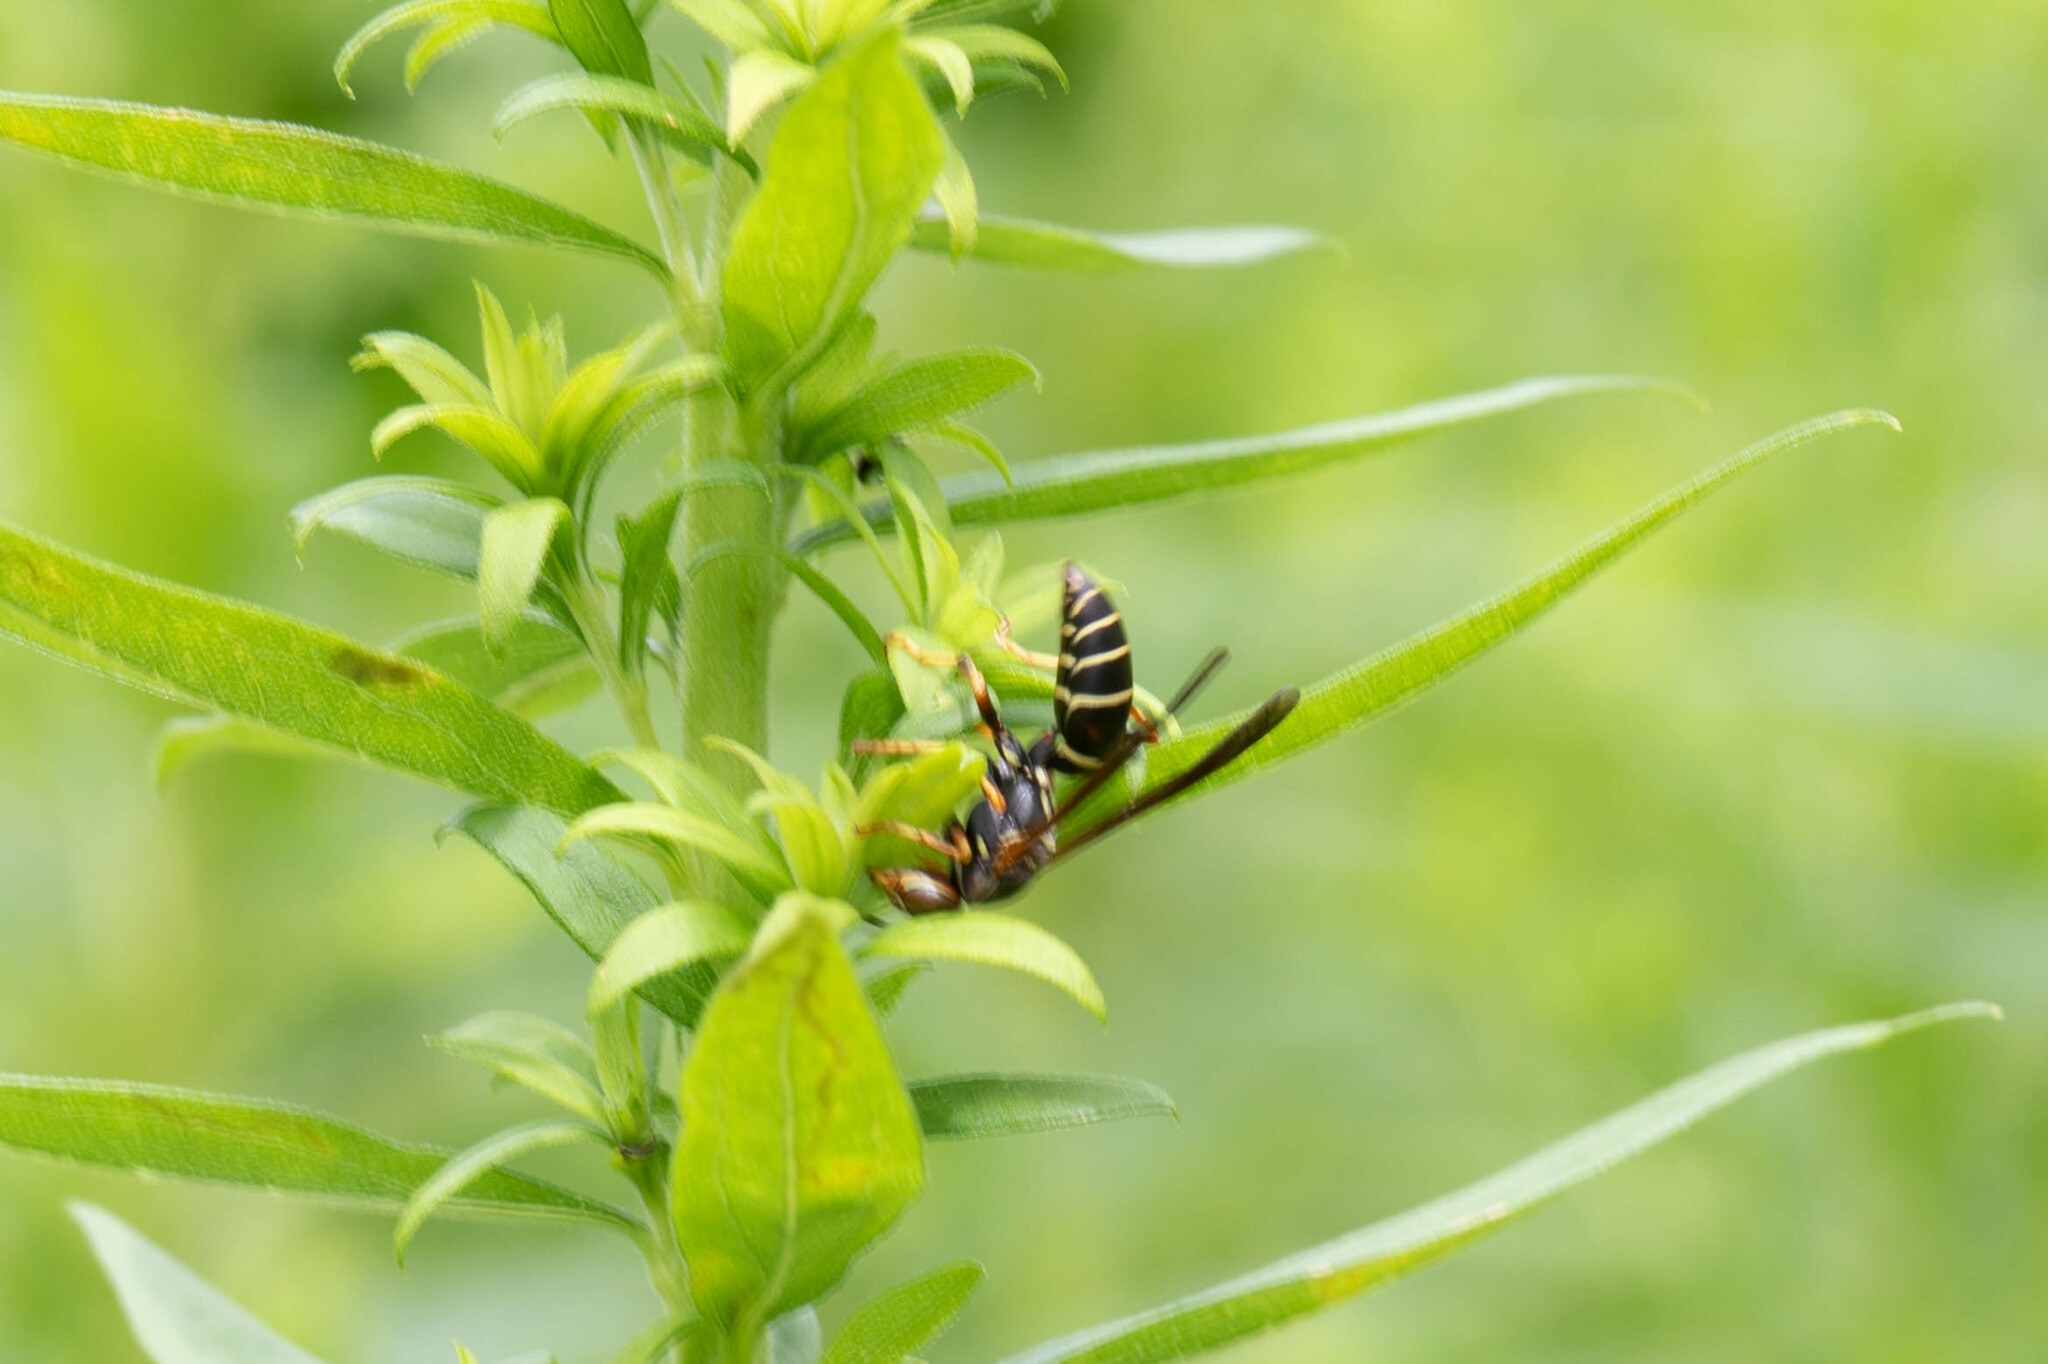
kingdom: Animalia
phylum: Arthropoda
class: Insecta
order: Hymenoptera
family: Eumenidae
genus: Polistes
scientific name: Polistes fuscatus
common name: Dark paper wasp
